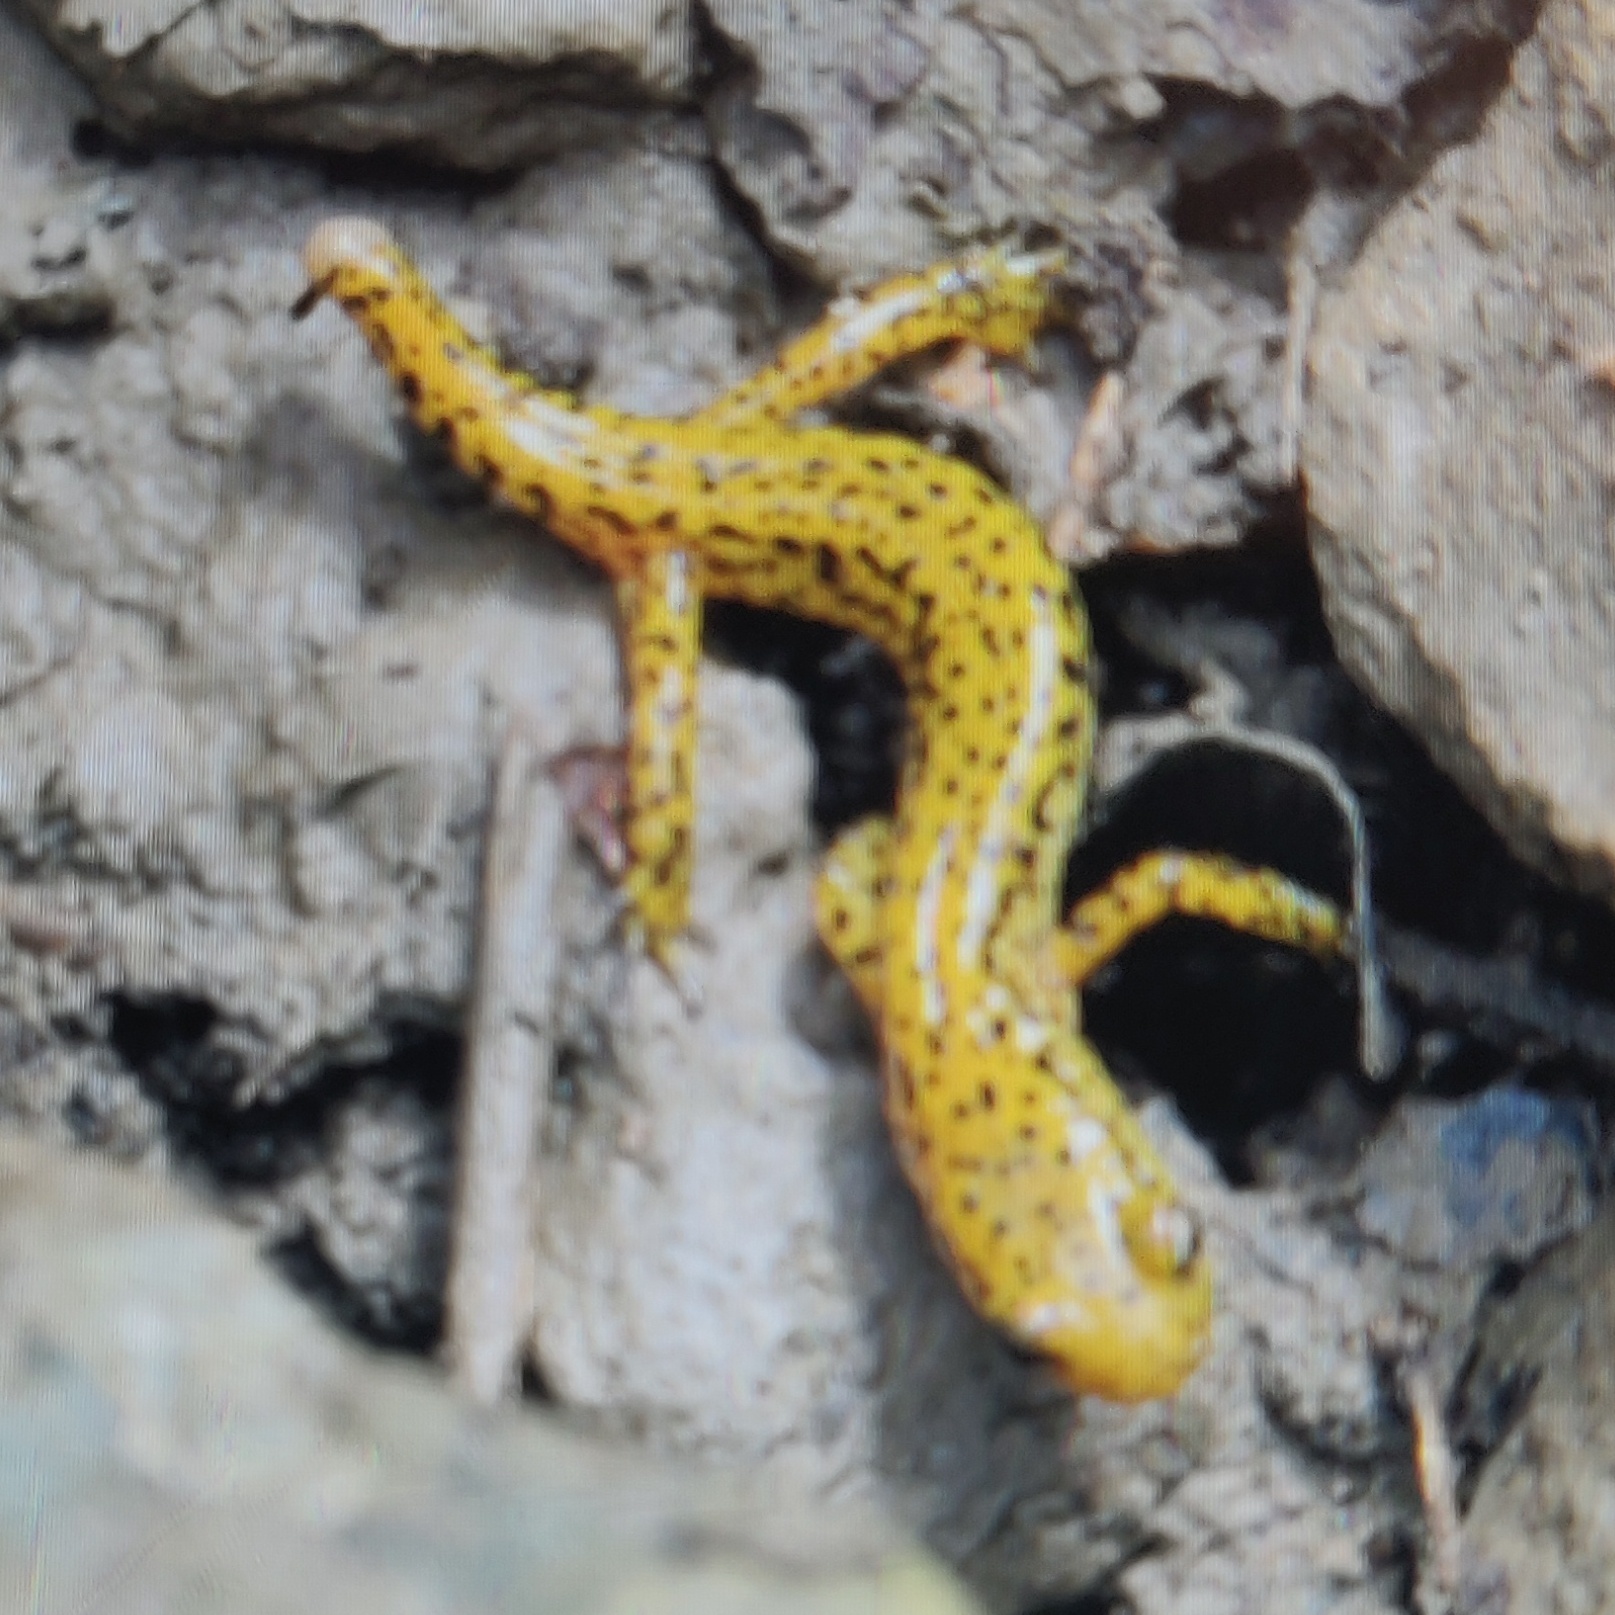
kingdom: Animalia
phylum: Chordata
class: Amphibia
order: Caudata
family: Plethodontidae
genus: Eurycea
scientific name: Eurycea longicauda
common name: Long-tailed salamander
